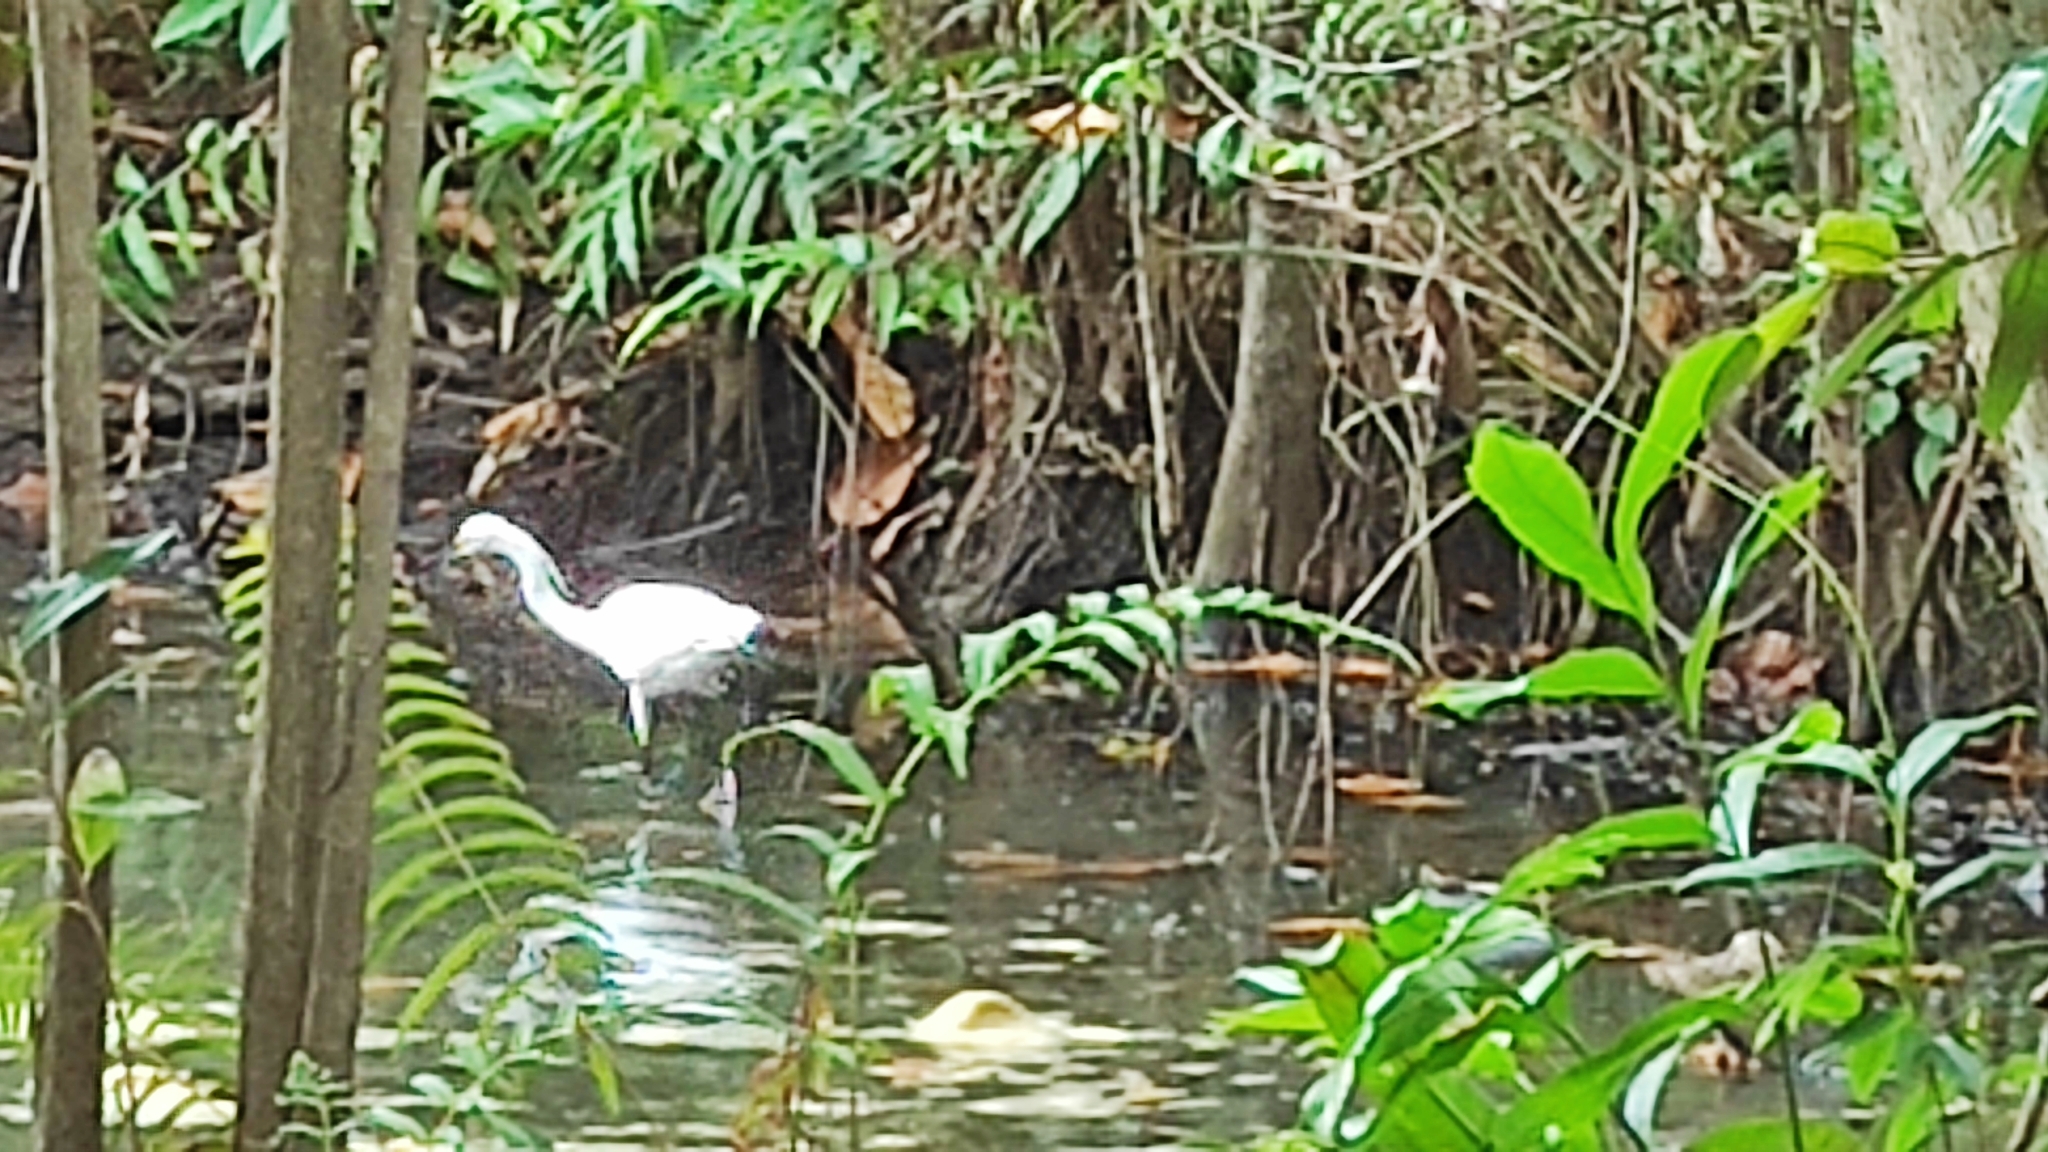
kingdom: Animalia
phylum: Chordata
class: Aves
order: Pelecaniformes
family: Ardeidae
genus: Egretta
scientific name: Egretta garzetta
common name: Little egret
